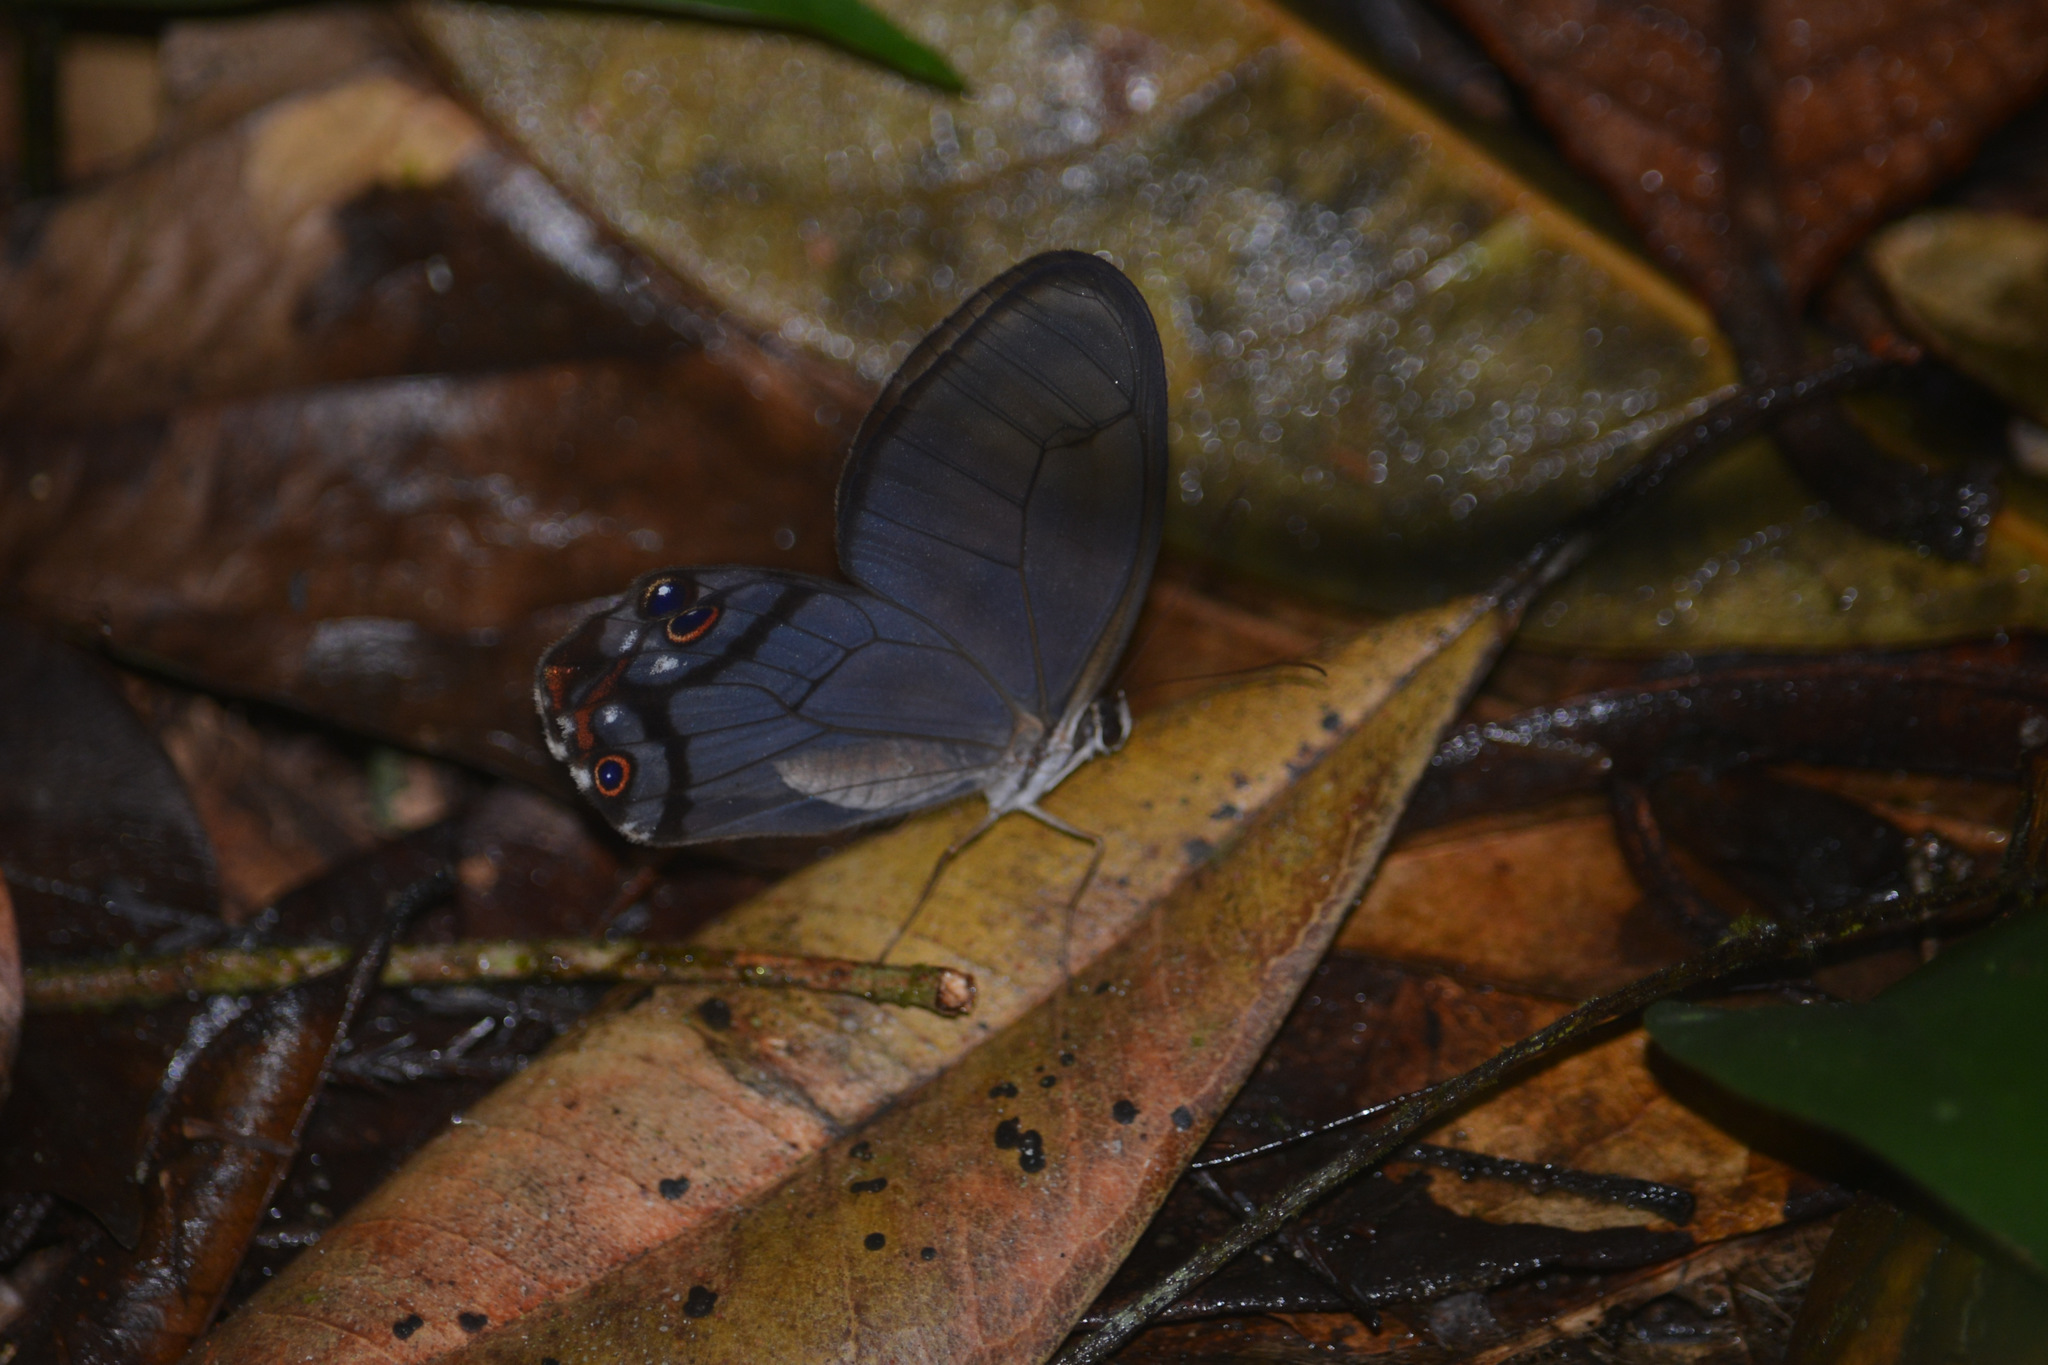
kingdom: Animalia
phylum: Arthropoda
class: Insecta
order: Lepidoptera
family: Nymphalidae
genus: Haetera
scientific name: Haetera piera
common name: Amber phantom
